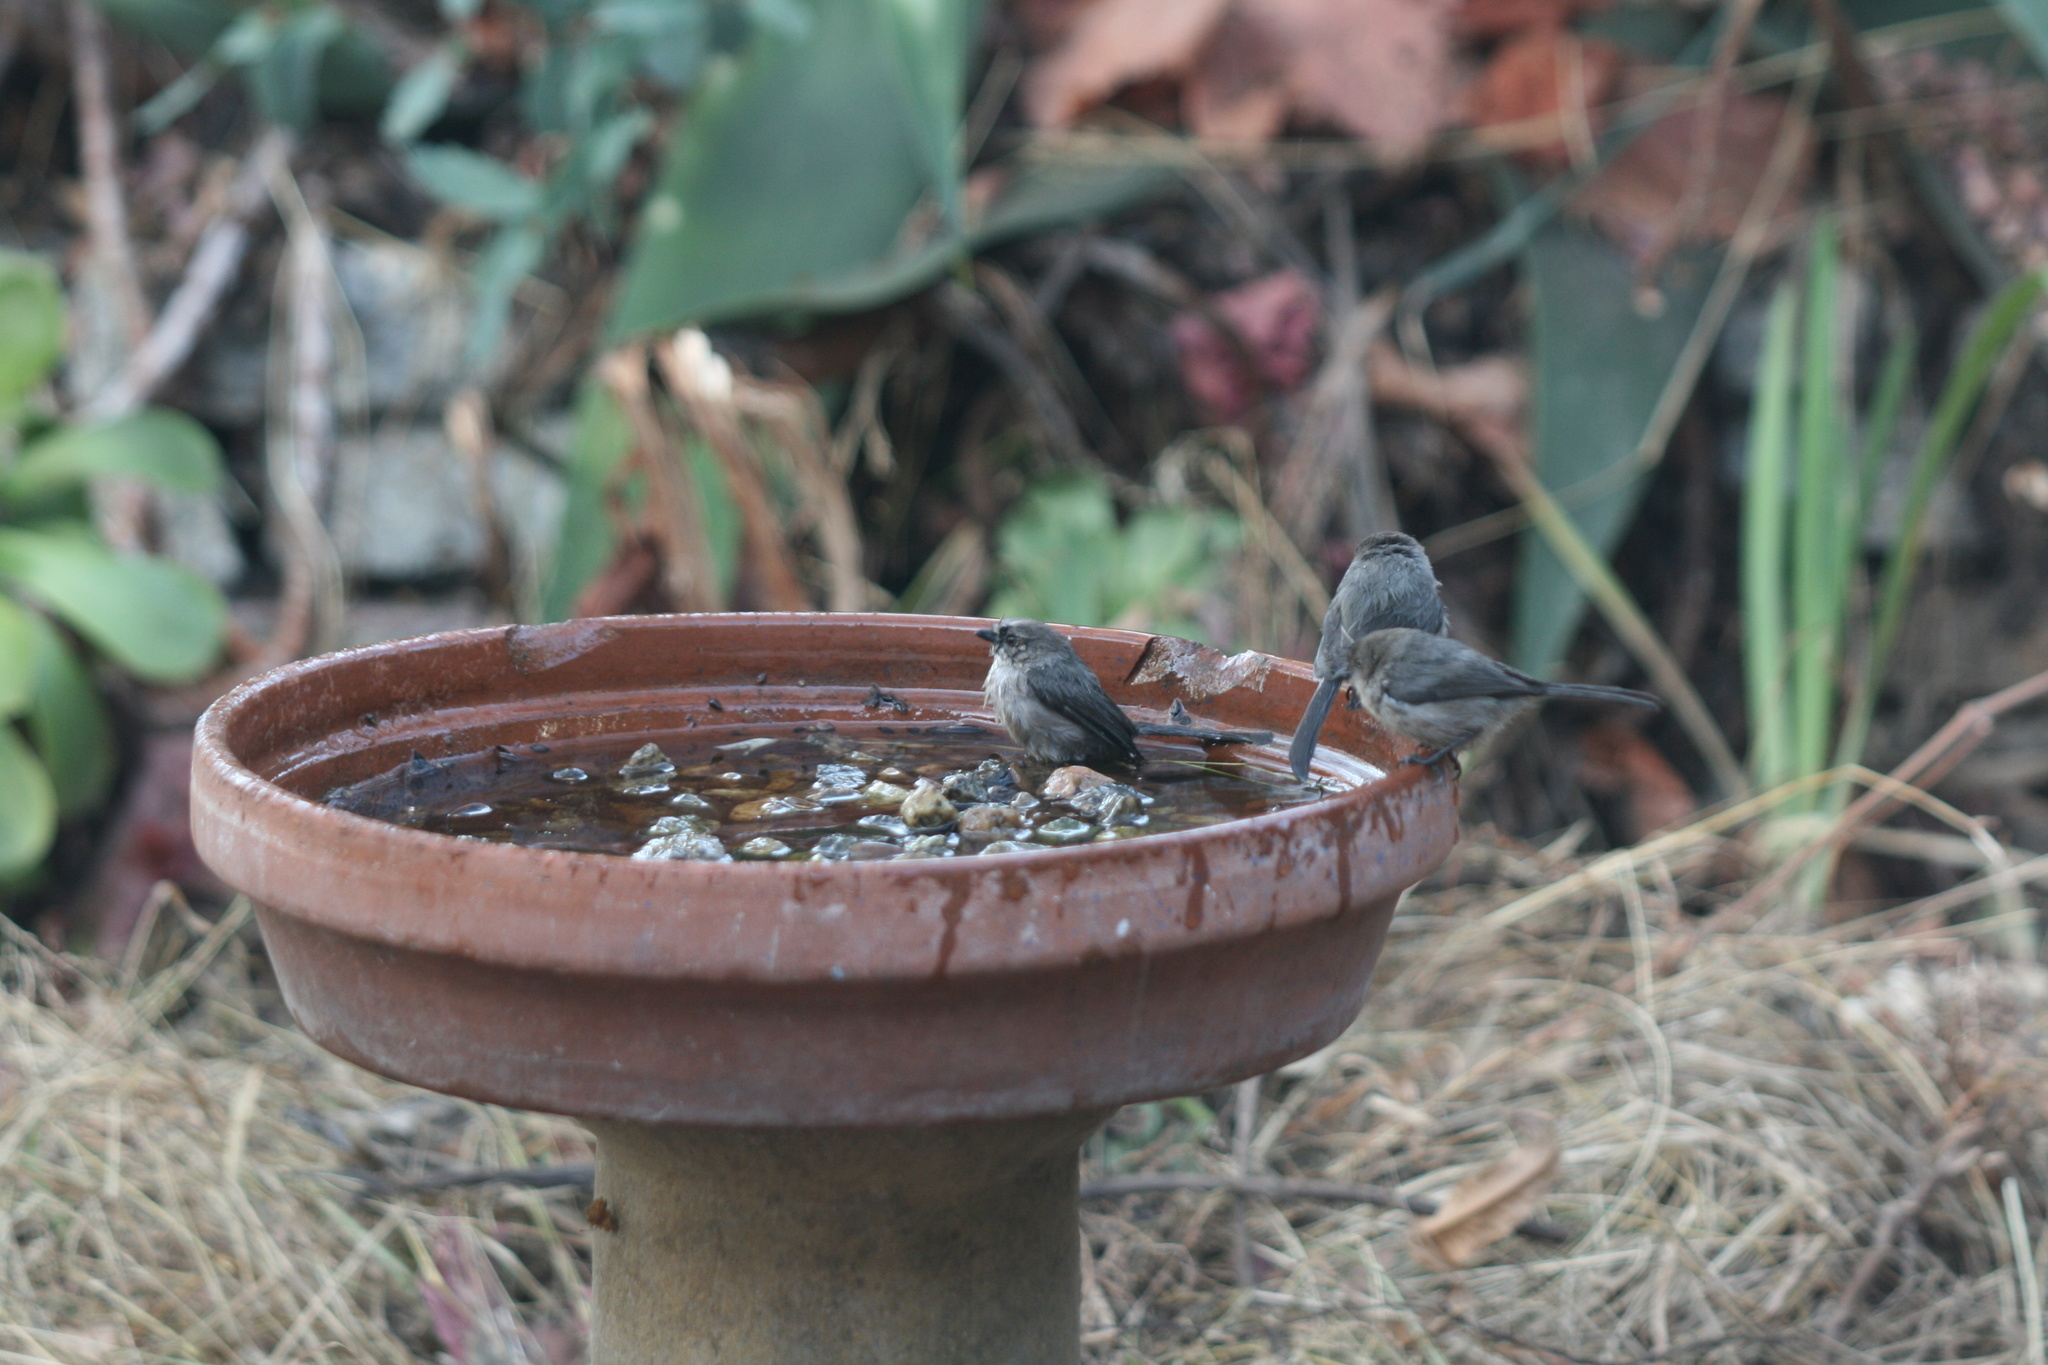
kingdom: Animalia
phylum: Chordata
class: Aves
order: Passeriformes
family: Aegithalidae
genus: Psaltriparus
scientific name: Psaltriparus minimus
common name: American bushtit
